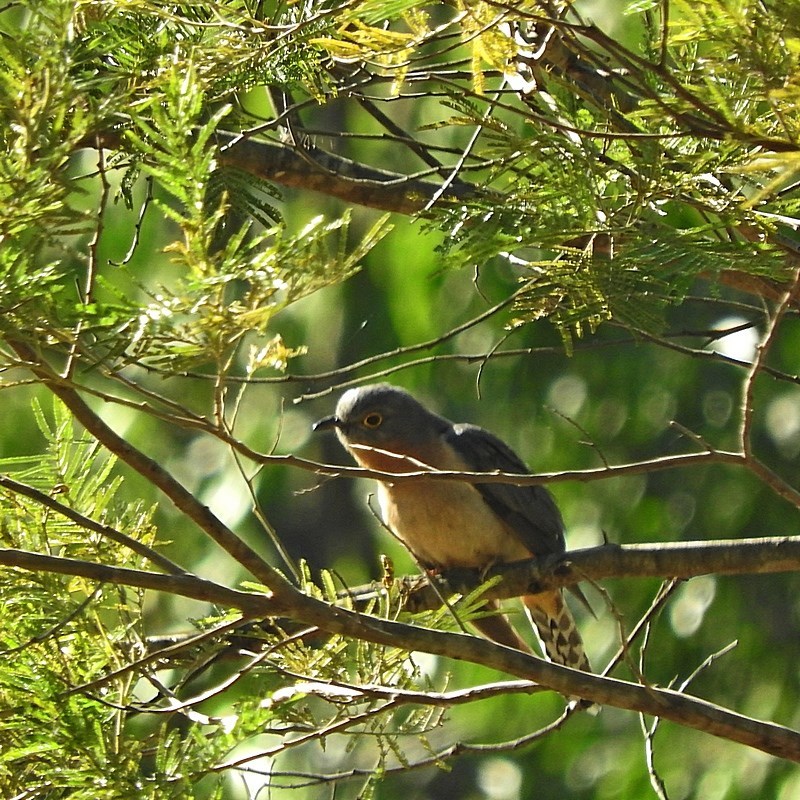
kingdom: Animalia
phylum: Chordata
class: Aves
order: Cuculiformes
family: Cuculidae
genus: Cacomantis
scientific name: Cacomantis flabelliformis
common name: Fan-tailed cuckoo
